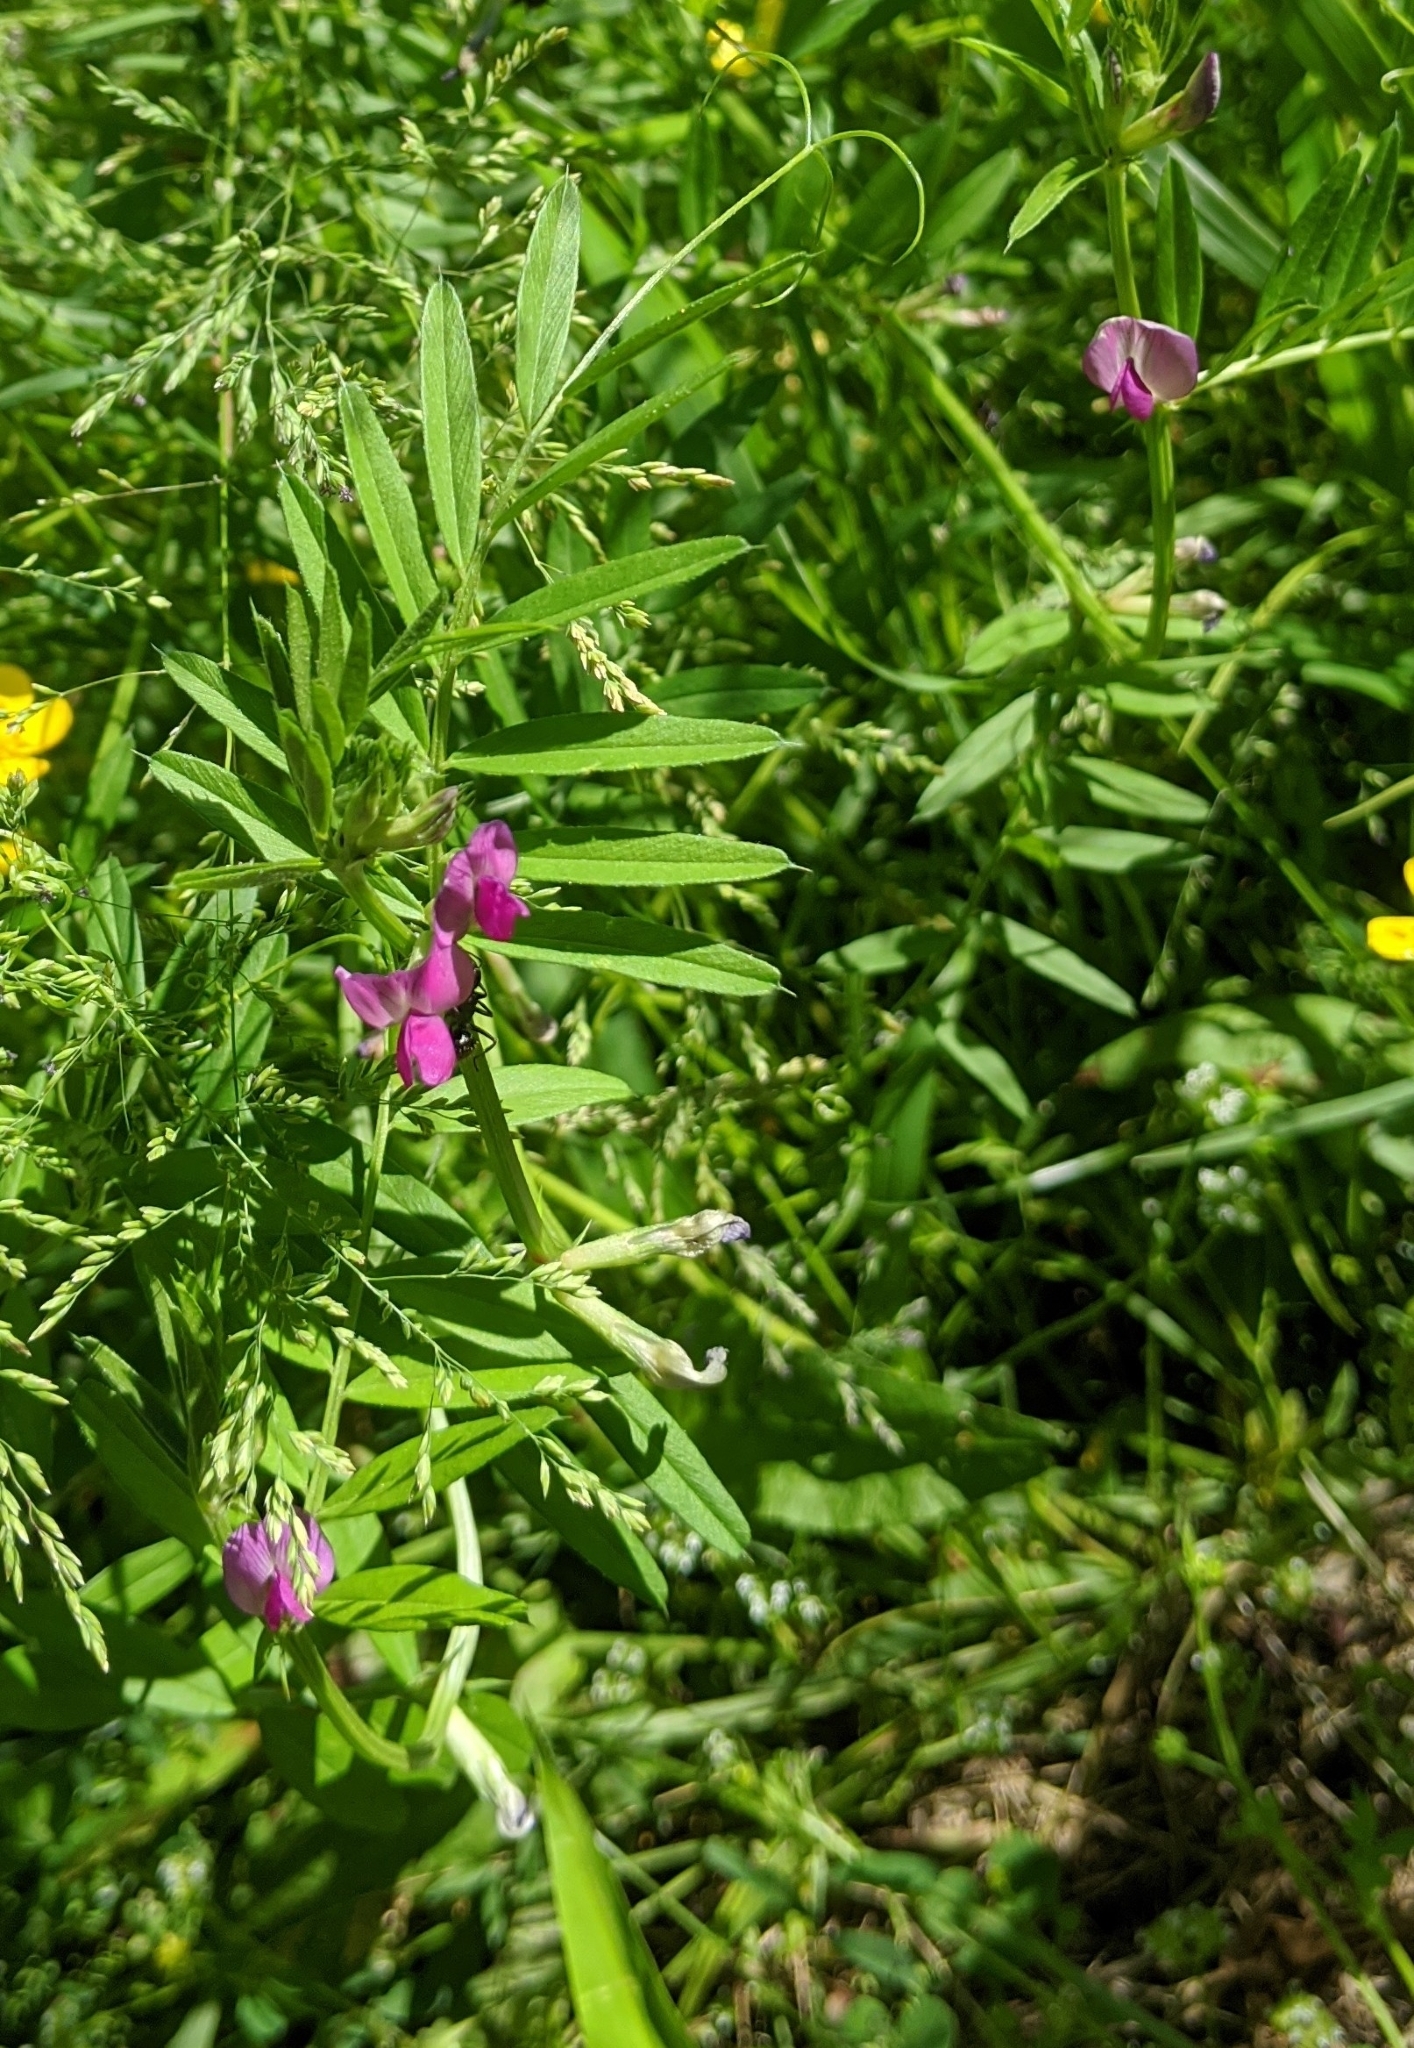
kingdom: Plantae
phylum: Tracheophyta
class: Magnoliopsida
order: Fabales
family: Fabaceae
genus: Vicia
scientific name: Vicia sativa
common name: Garden vetch
